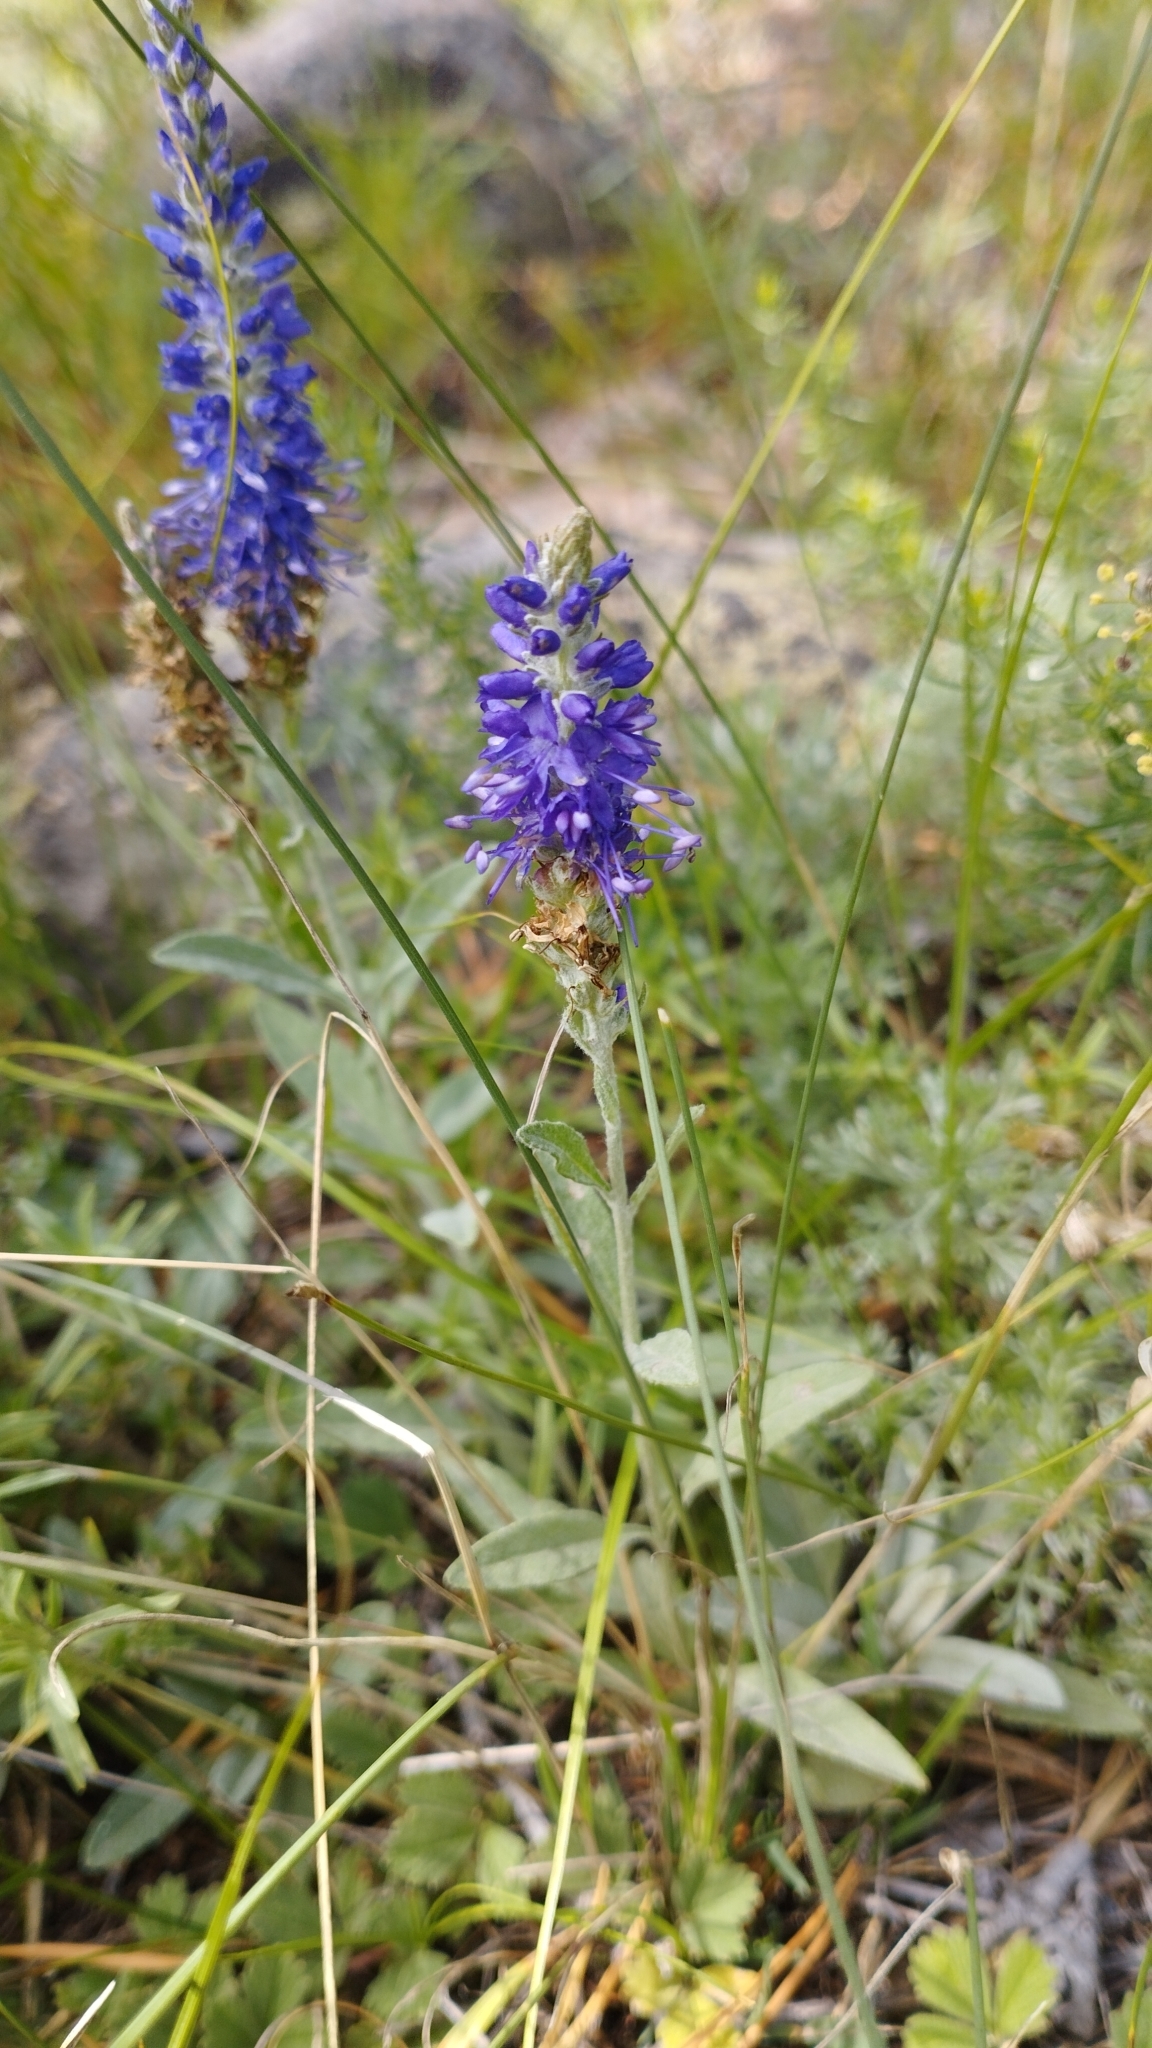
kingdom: Plantae
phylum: Tracheophyta
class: Magnoliopsida
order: Lamiales
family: Plantaginaceae
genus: Veronica
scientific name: Veronica incana
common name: Silver speedwell
